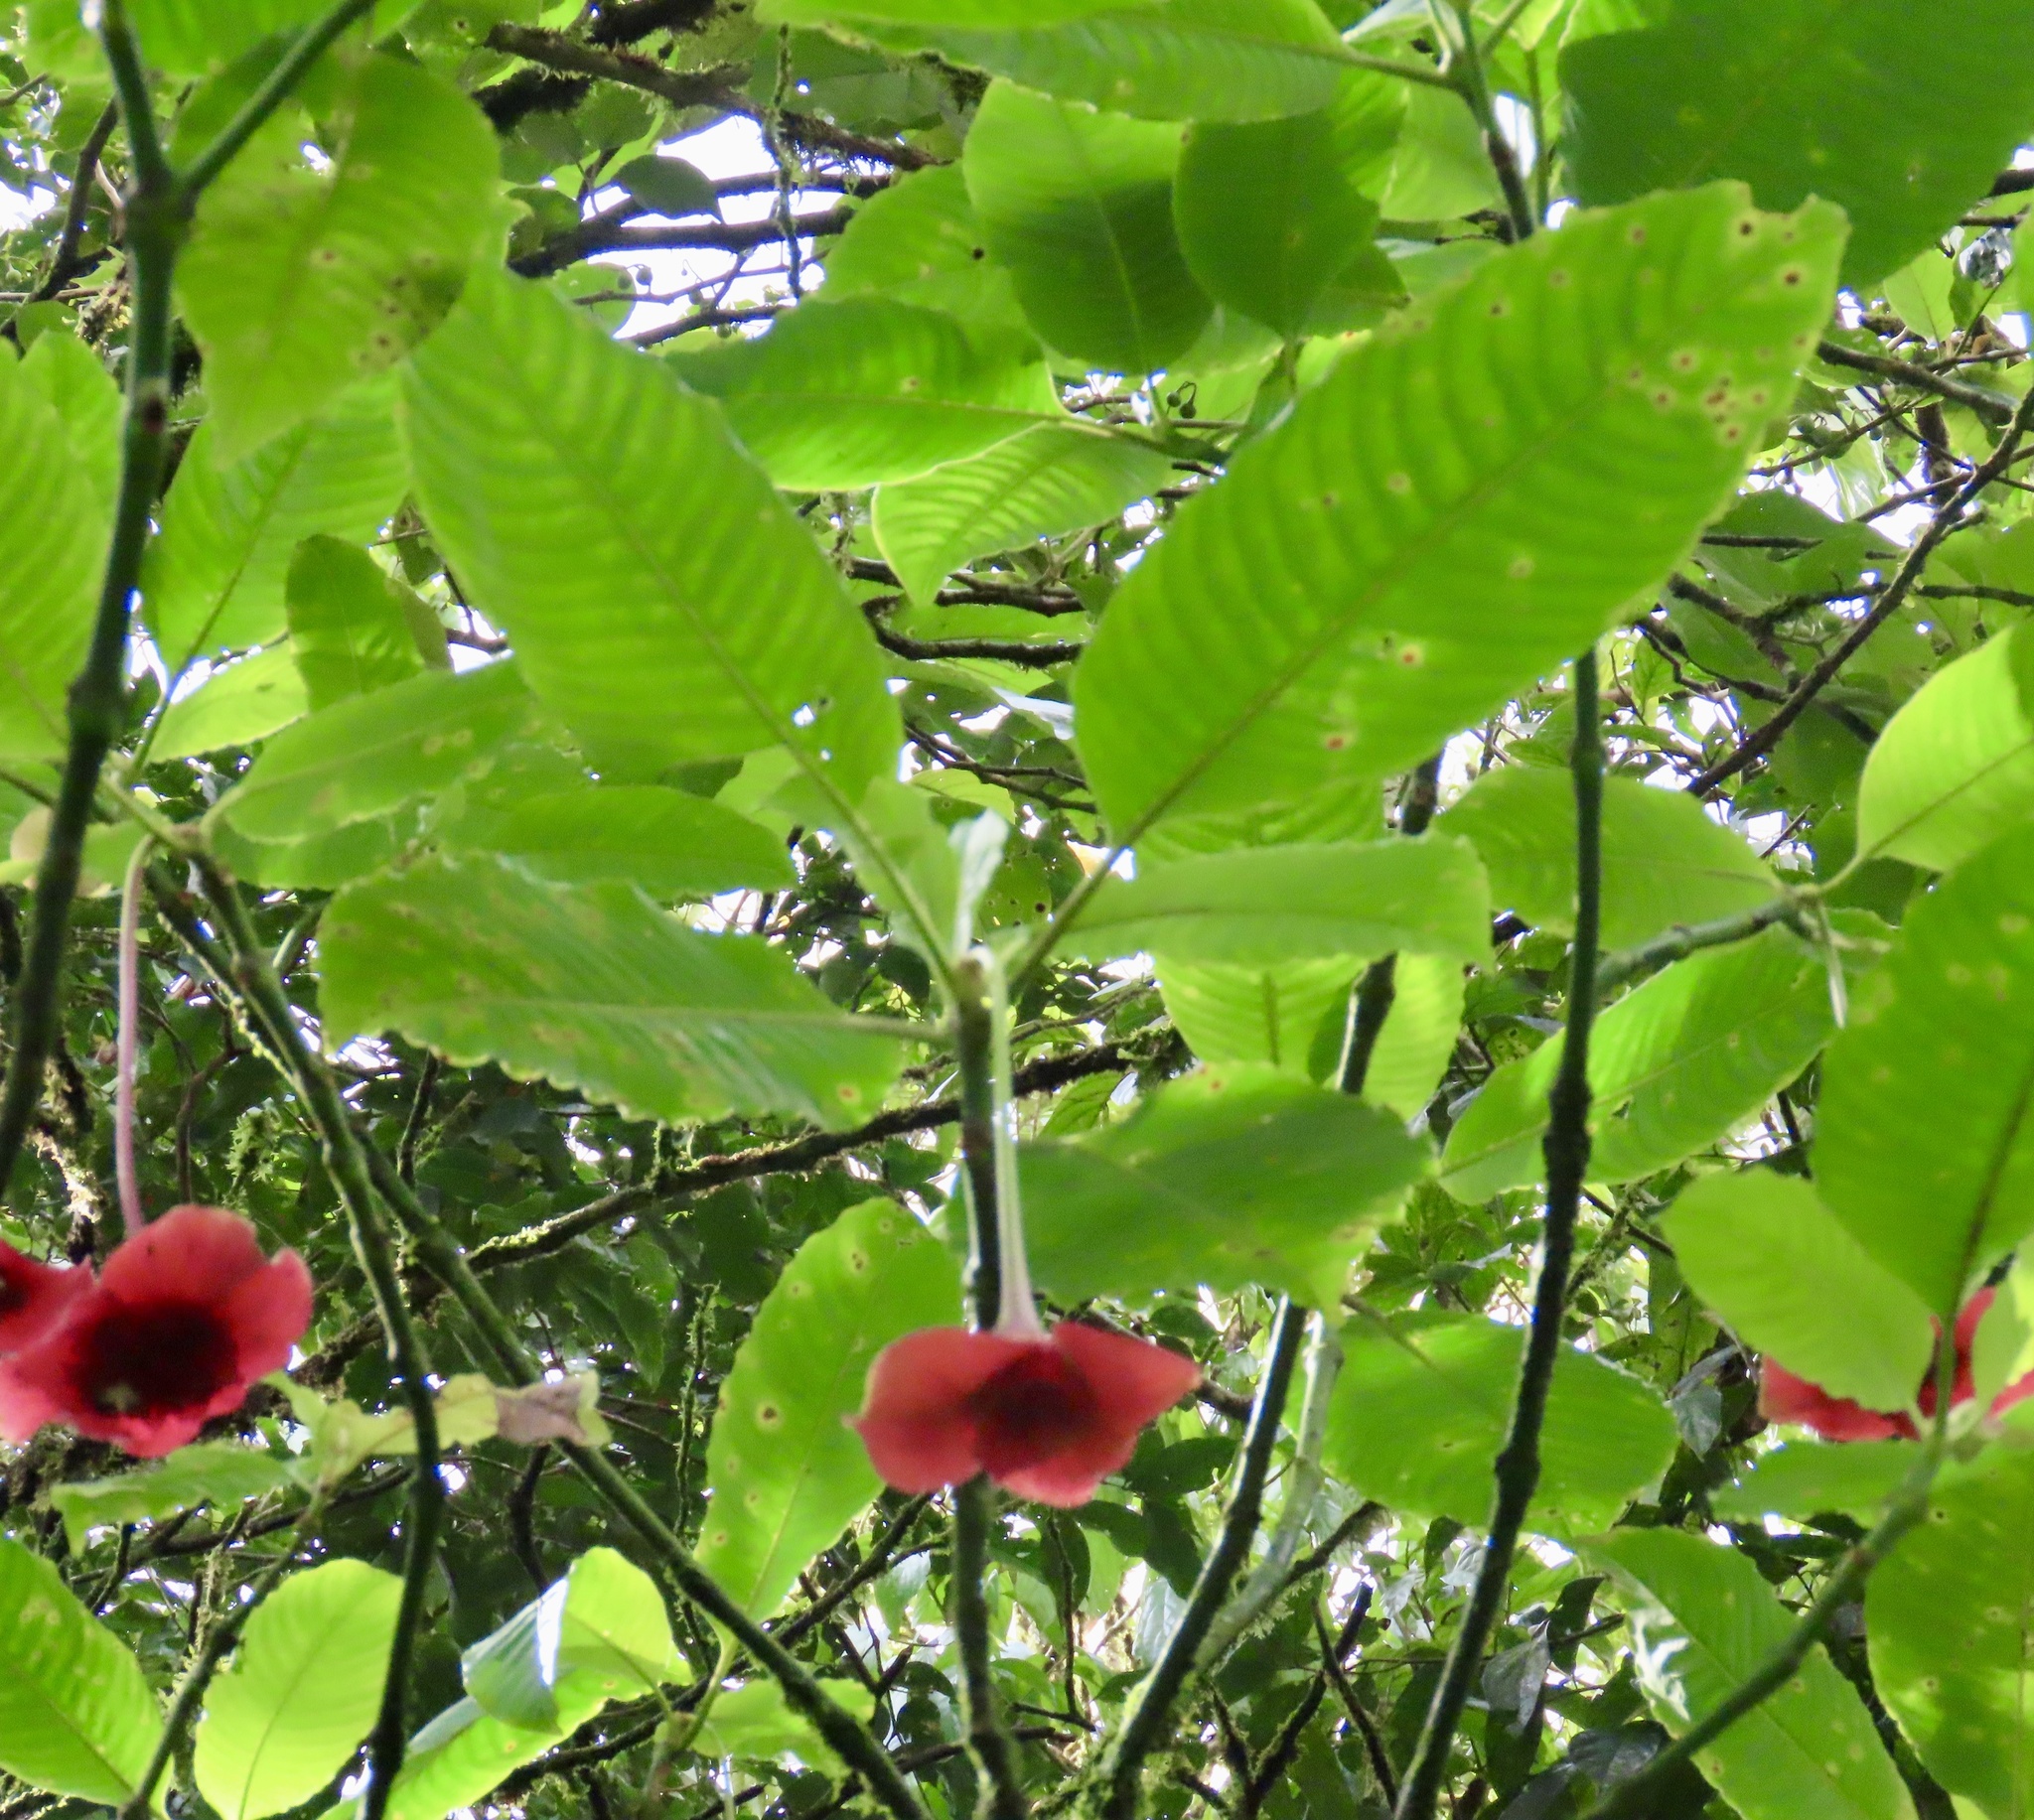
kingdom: Plantae
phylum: Tracheophyta
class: Magnoliopsida
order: Gentianales
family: Rubiaceae
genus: Palicourea
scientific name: Palicourea correae
